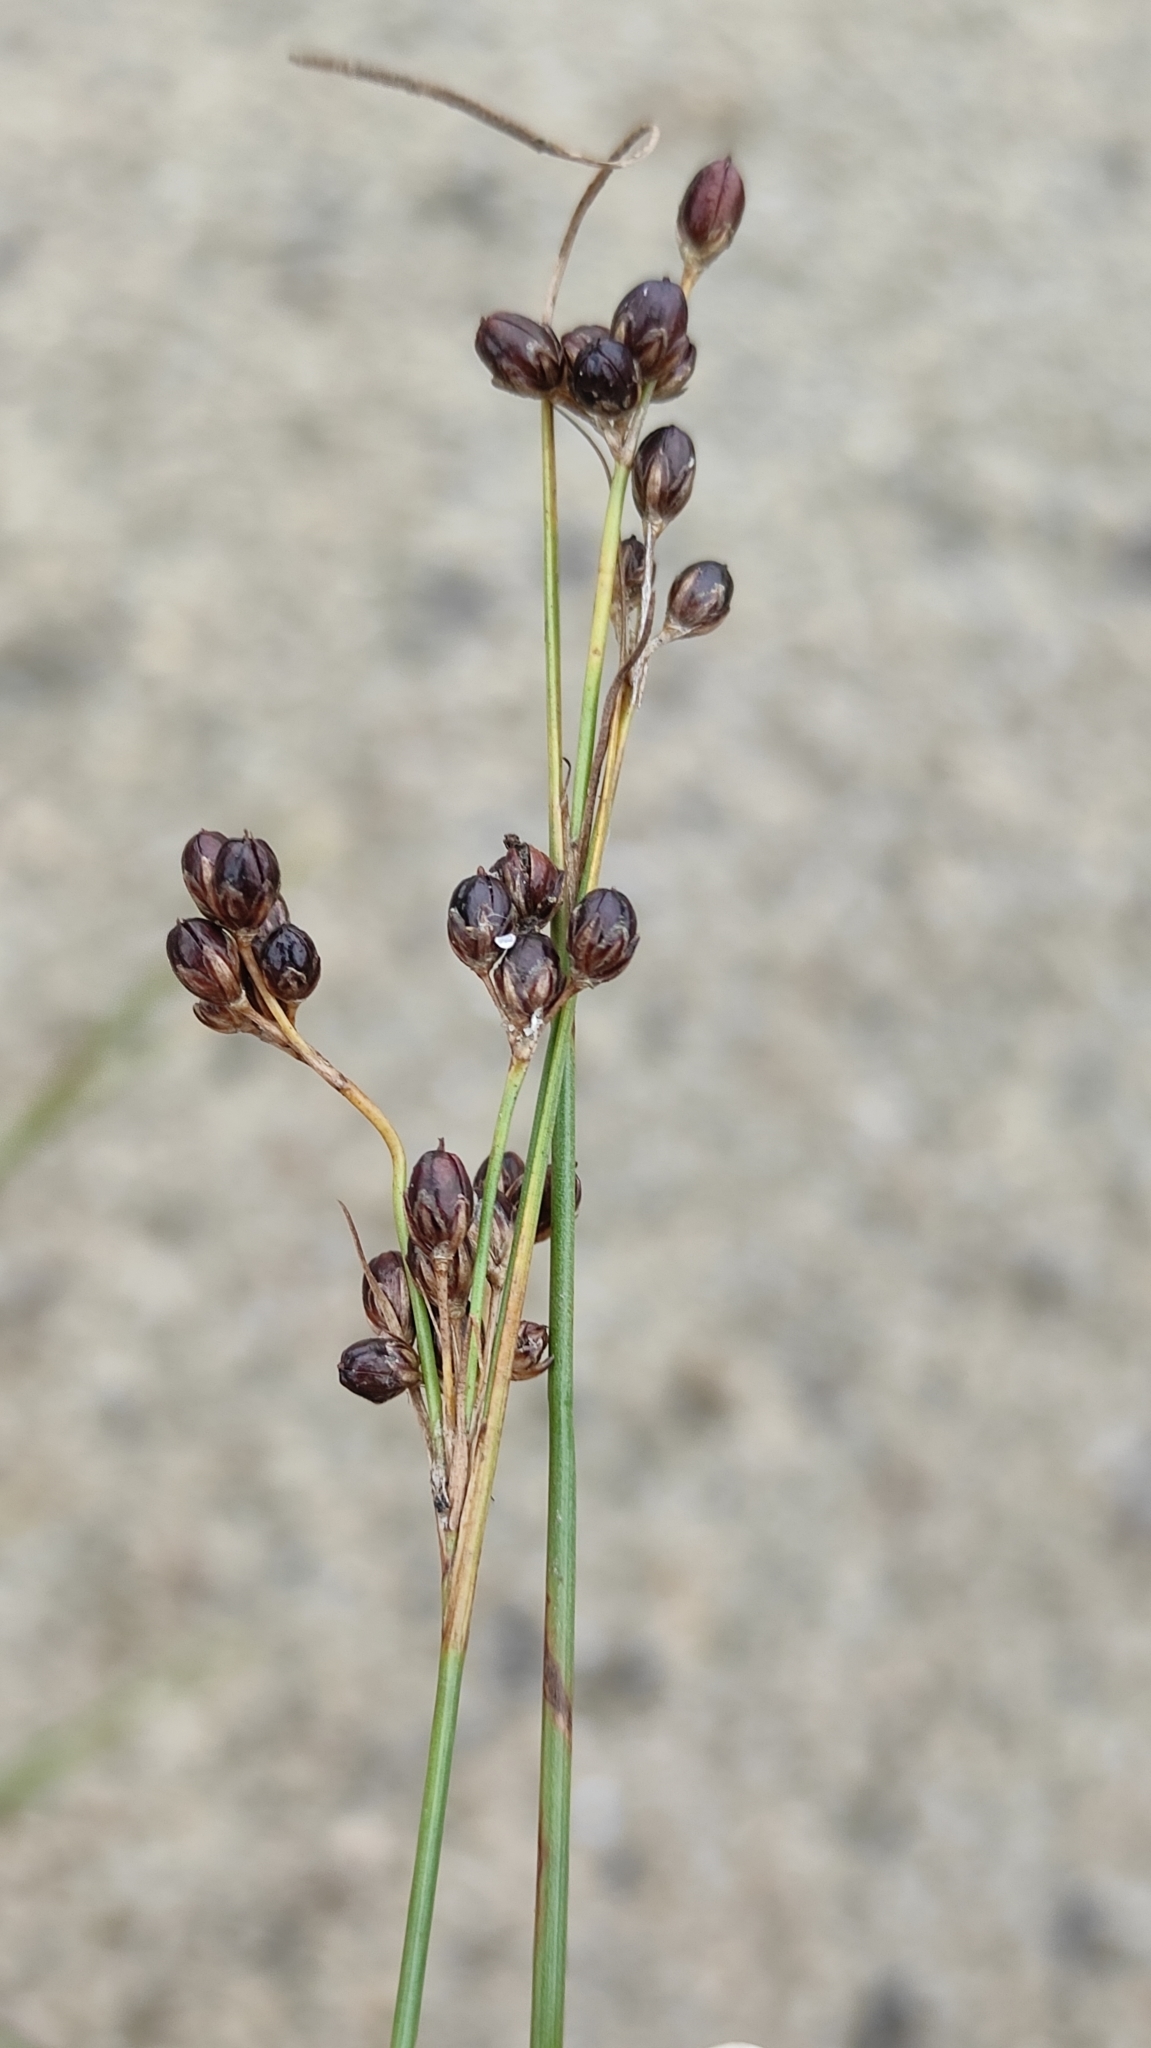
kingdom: Plantae
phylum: Tracheophyta
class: Liliopsida
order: Poales
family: Juncaceae
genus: Juncus
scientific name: Juncus compressus
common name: Round-fruited rush
